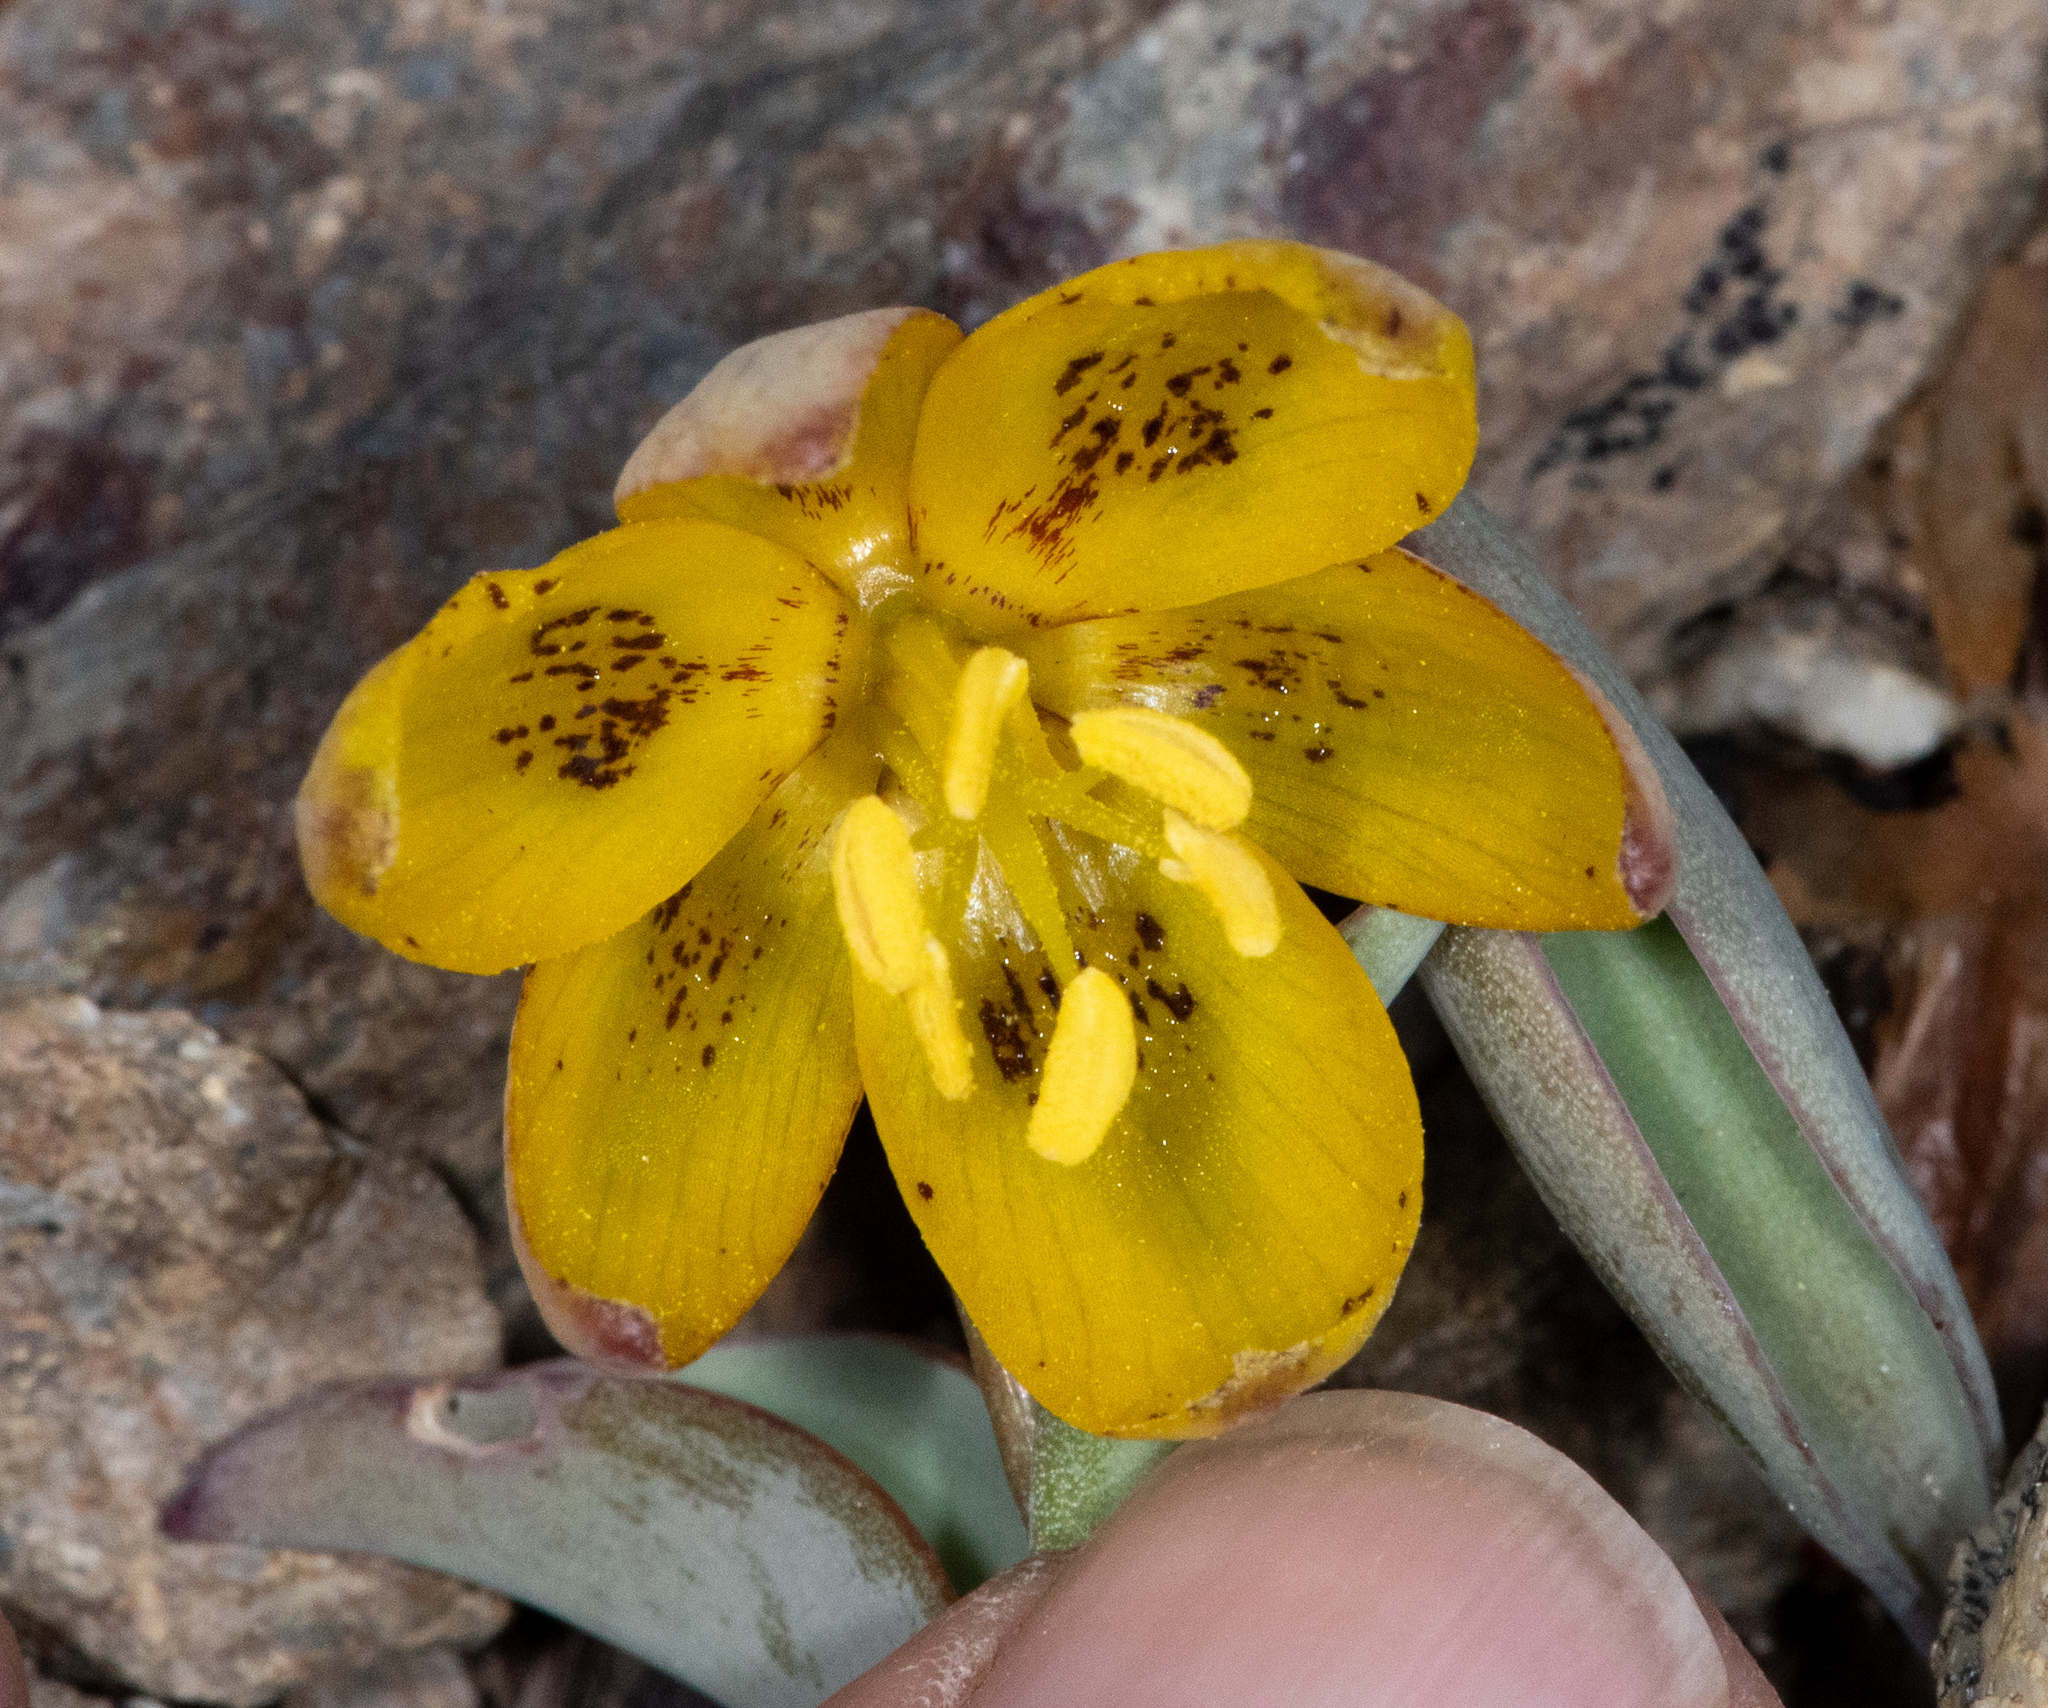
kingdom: Plantae
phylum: Tracheophyta
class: Liliopsida
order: Liliales
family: Liliaceae
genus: Fritillaria
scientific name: Fritillaria glauca
